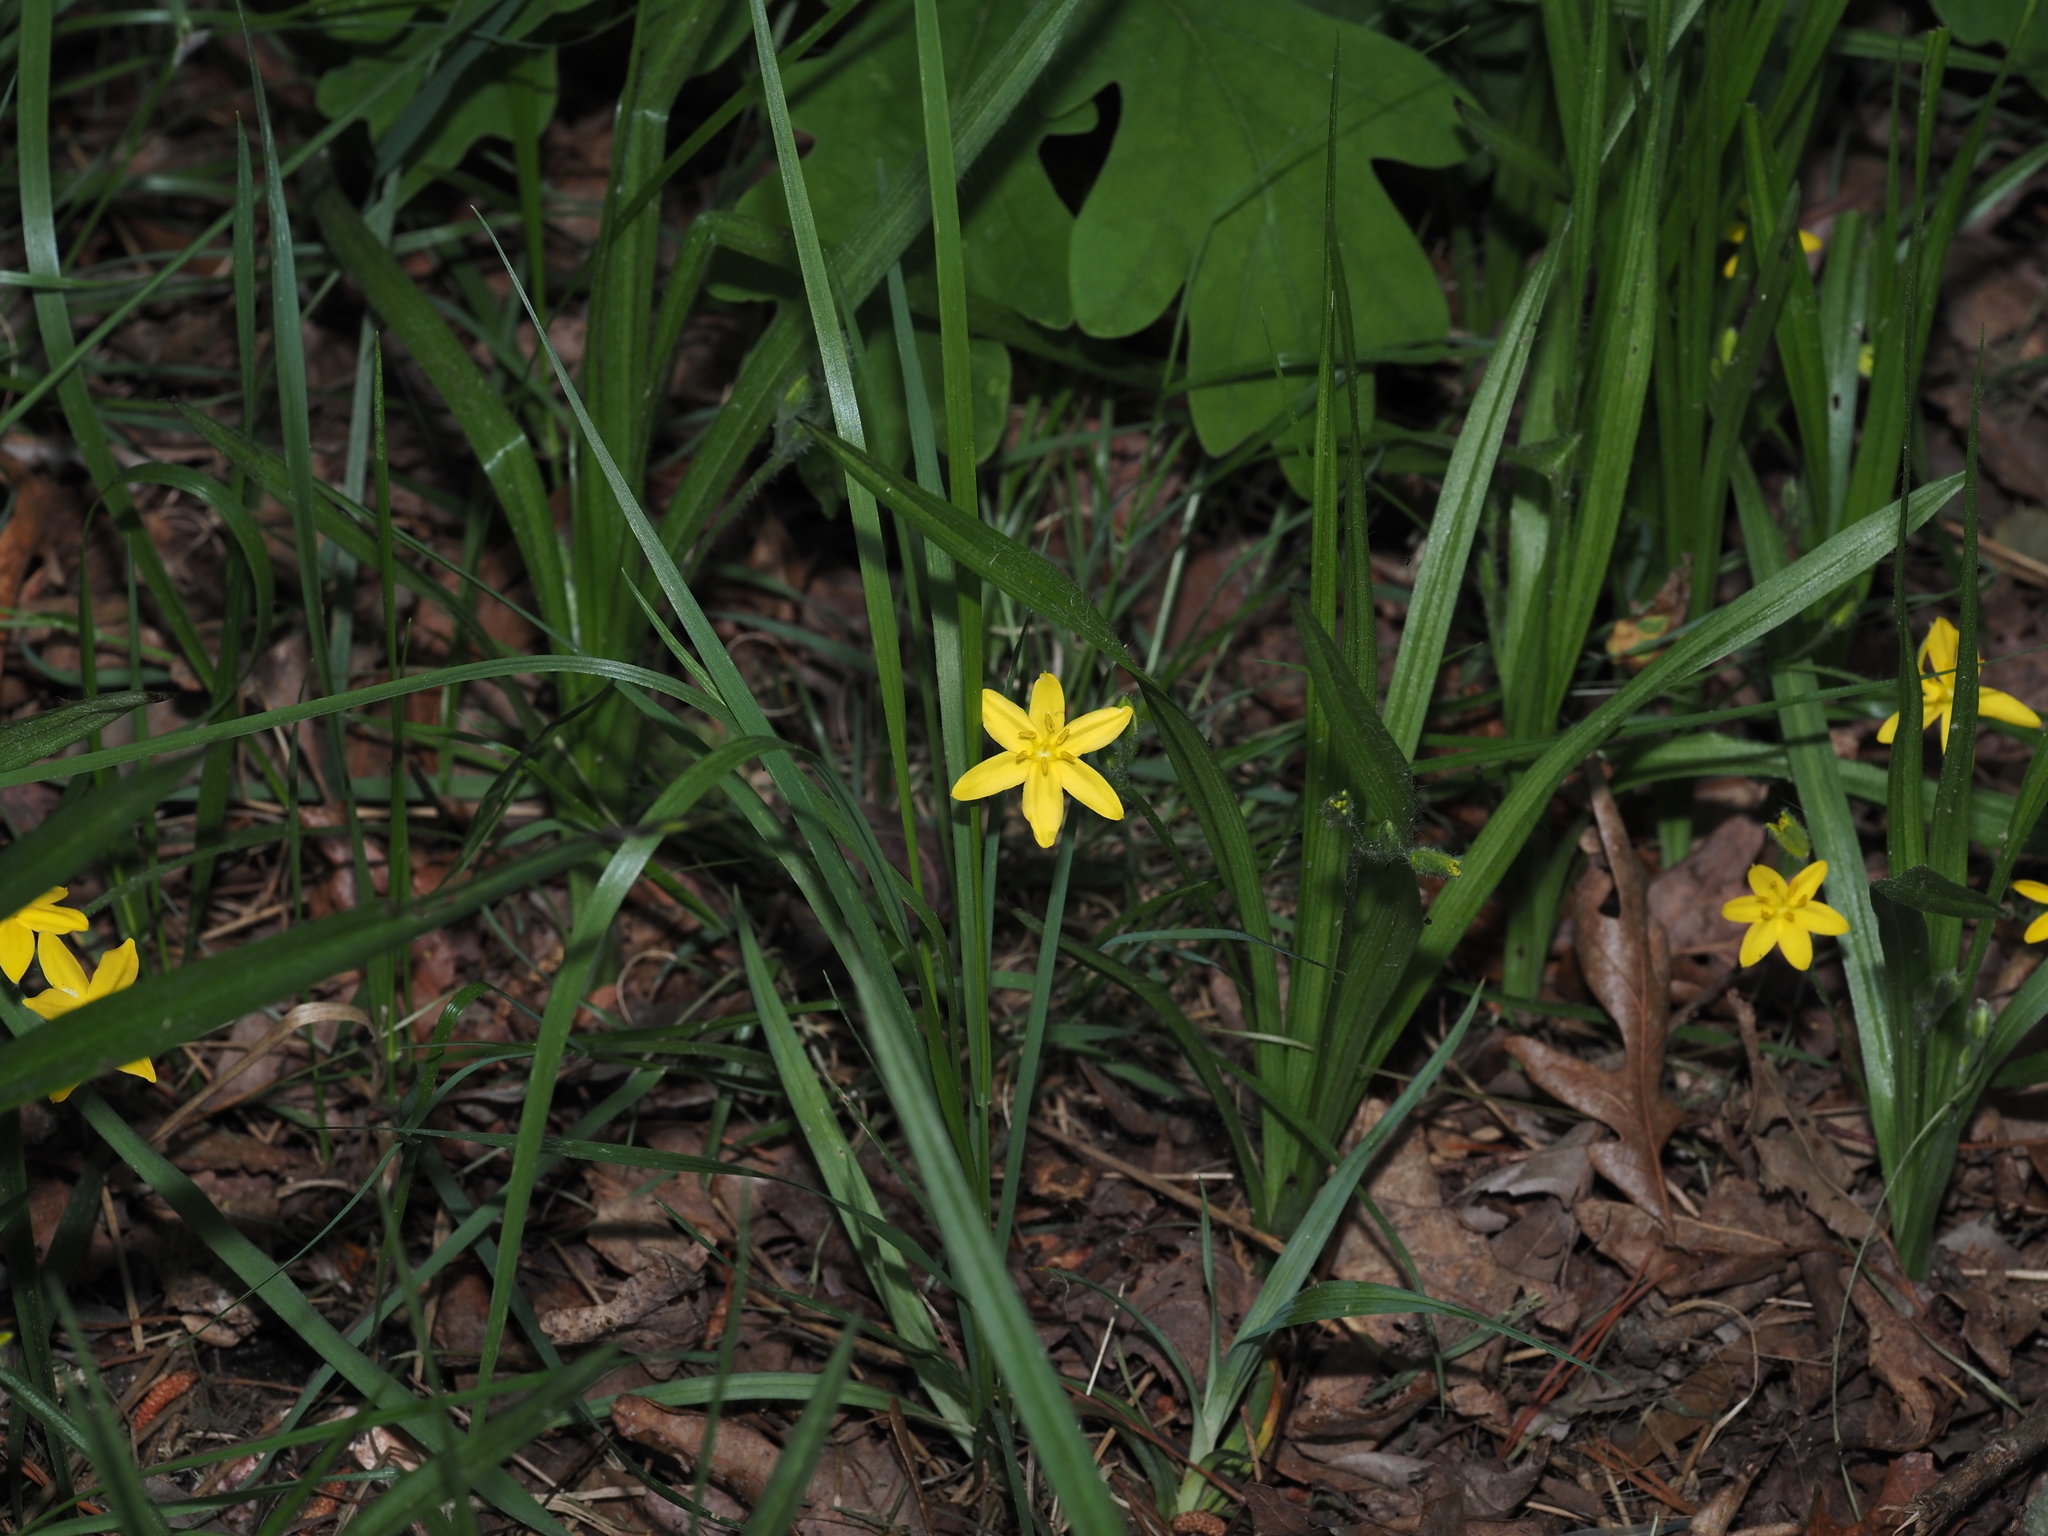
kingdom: Plantae
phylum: Tracheophyta
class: Liliopsida
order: Asparagales
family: Hypoxidaceae
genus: Hypoxis
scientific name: Hypoxis hirsuta
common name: Common goldstar
